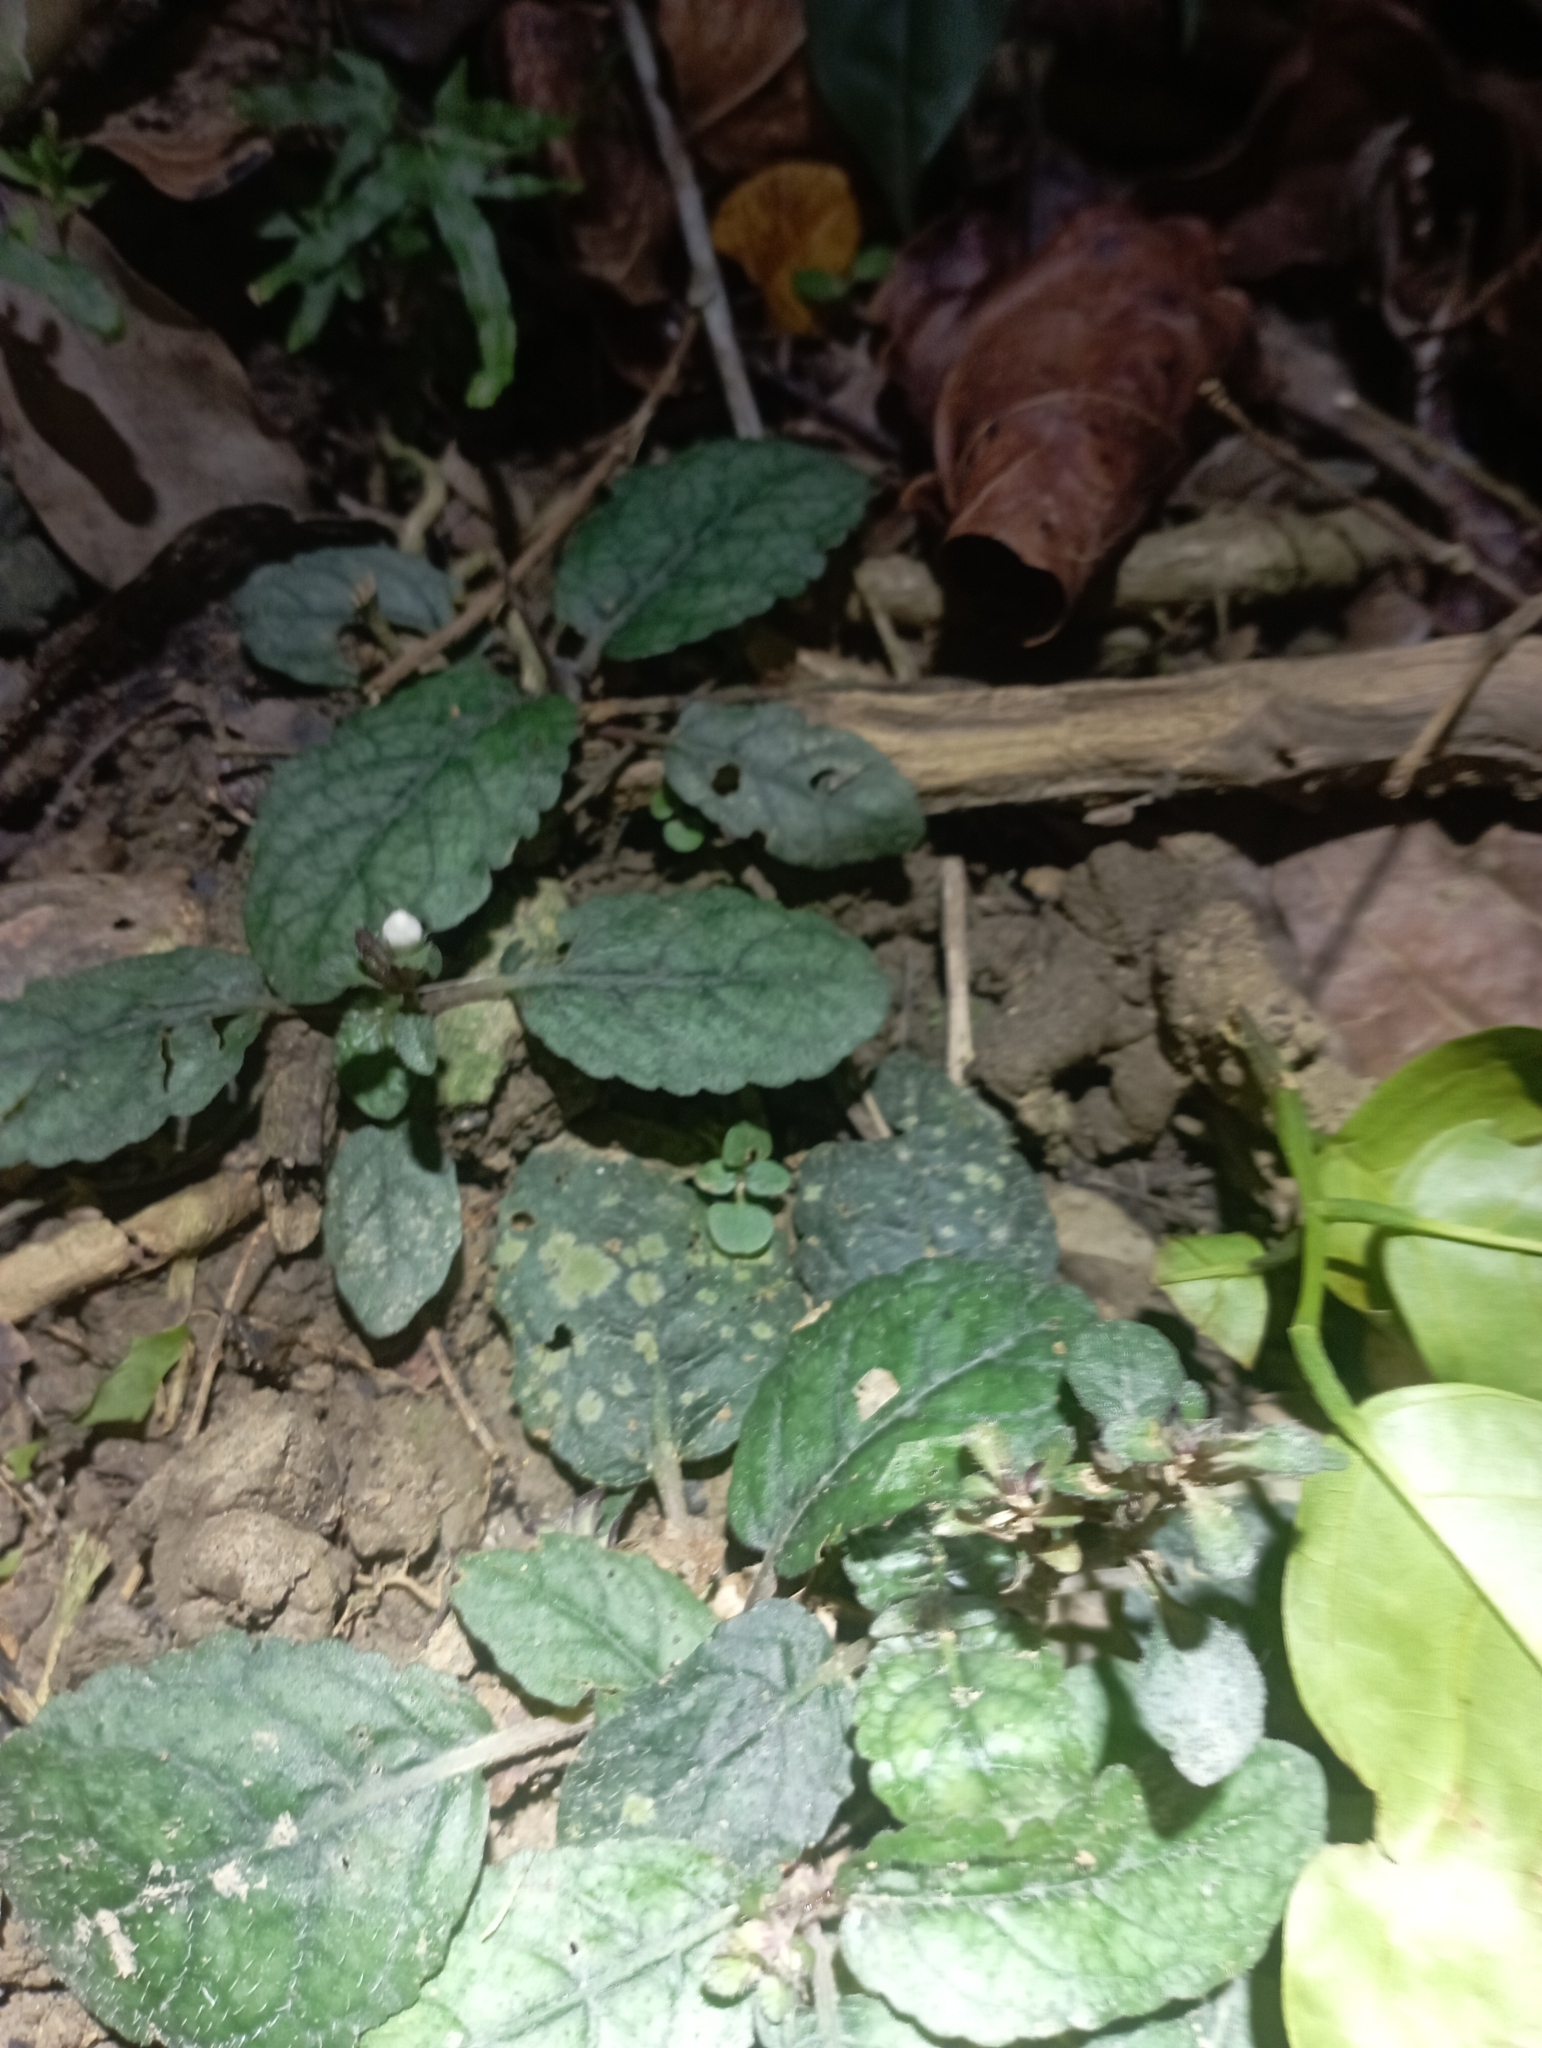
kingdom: Plantae
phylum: Tracheophyta
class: Magnoliopsida
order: Lamiales
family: Acanthaceae
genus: Strobilanthes
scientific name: Strobilanthes reptans
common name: Acanthaceae
